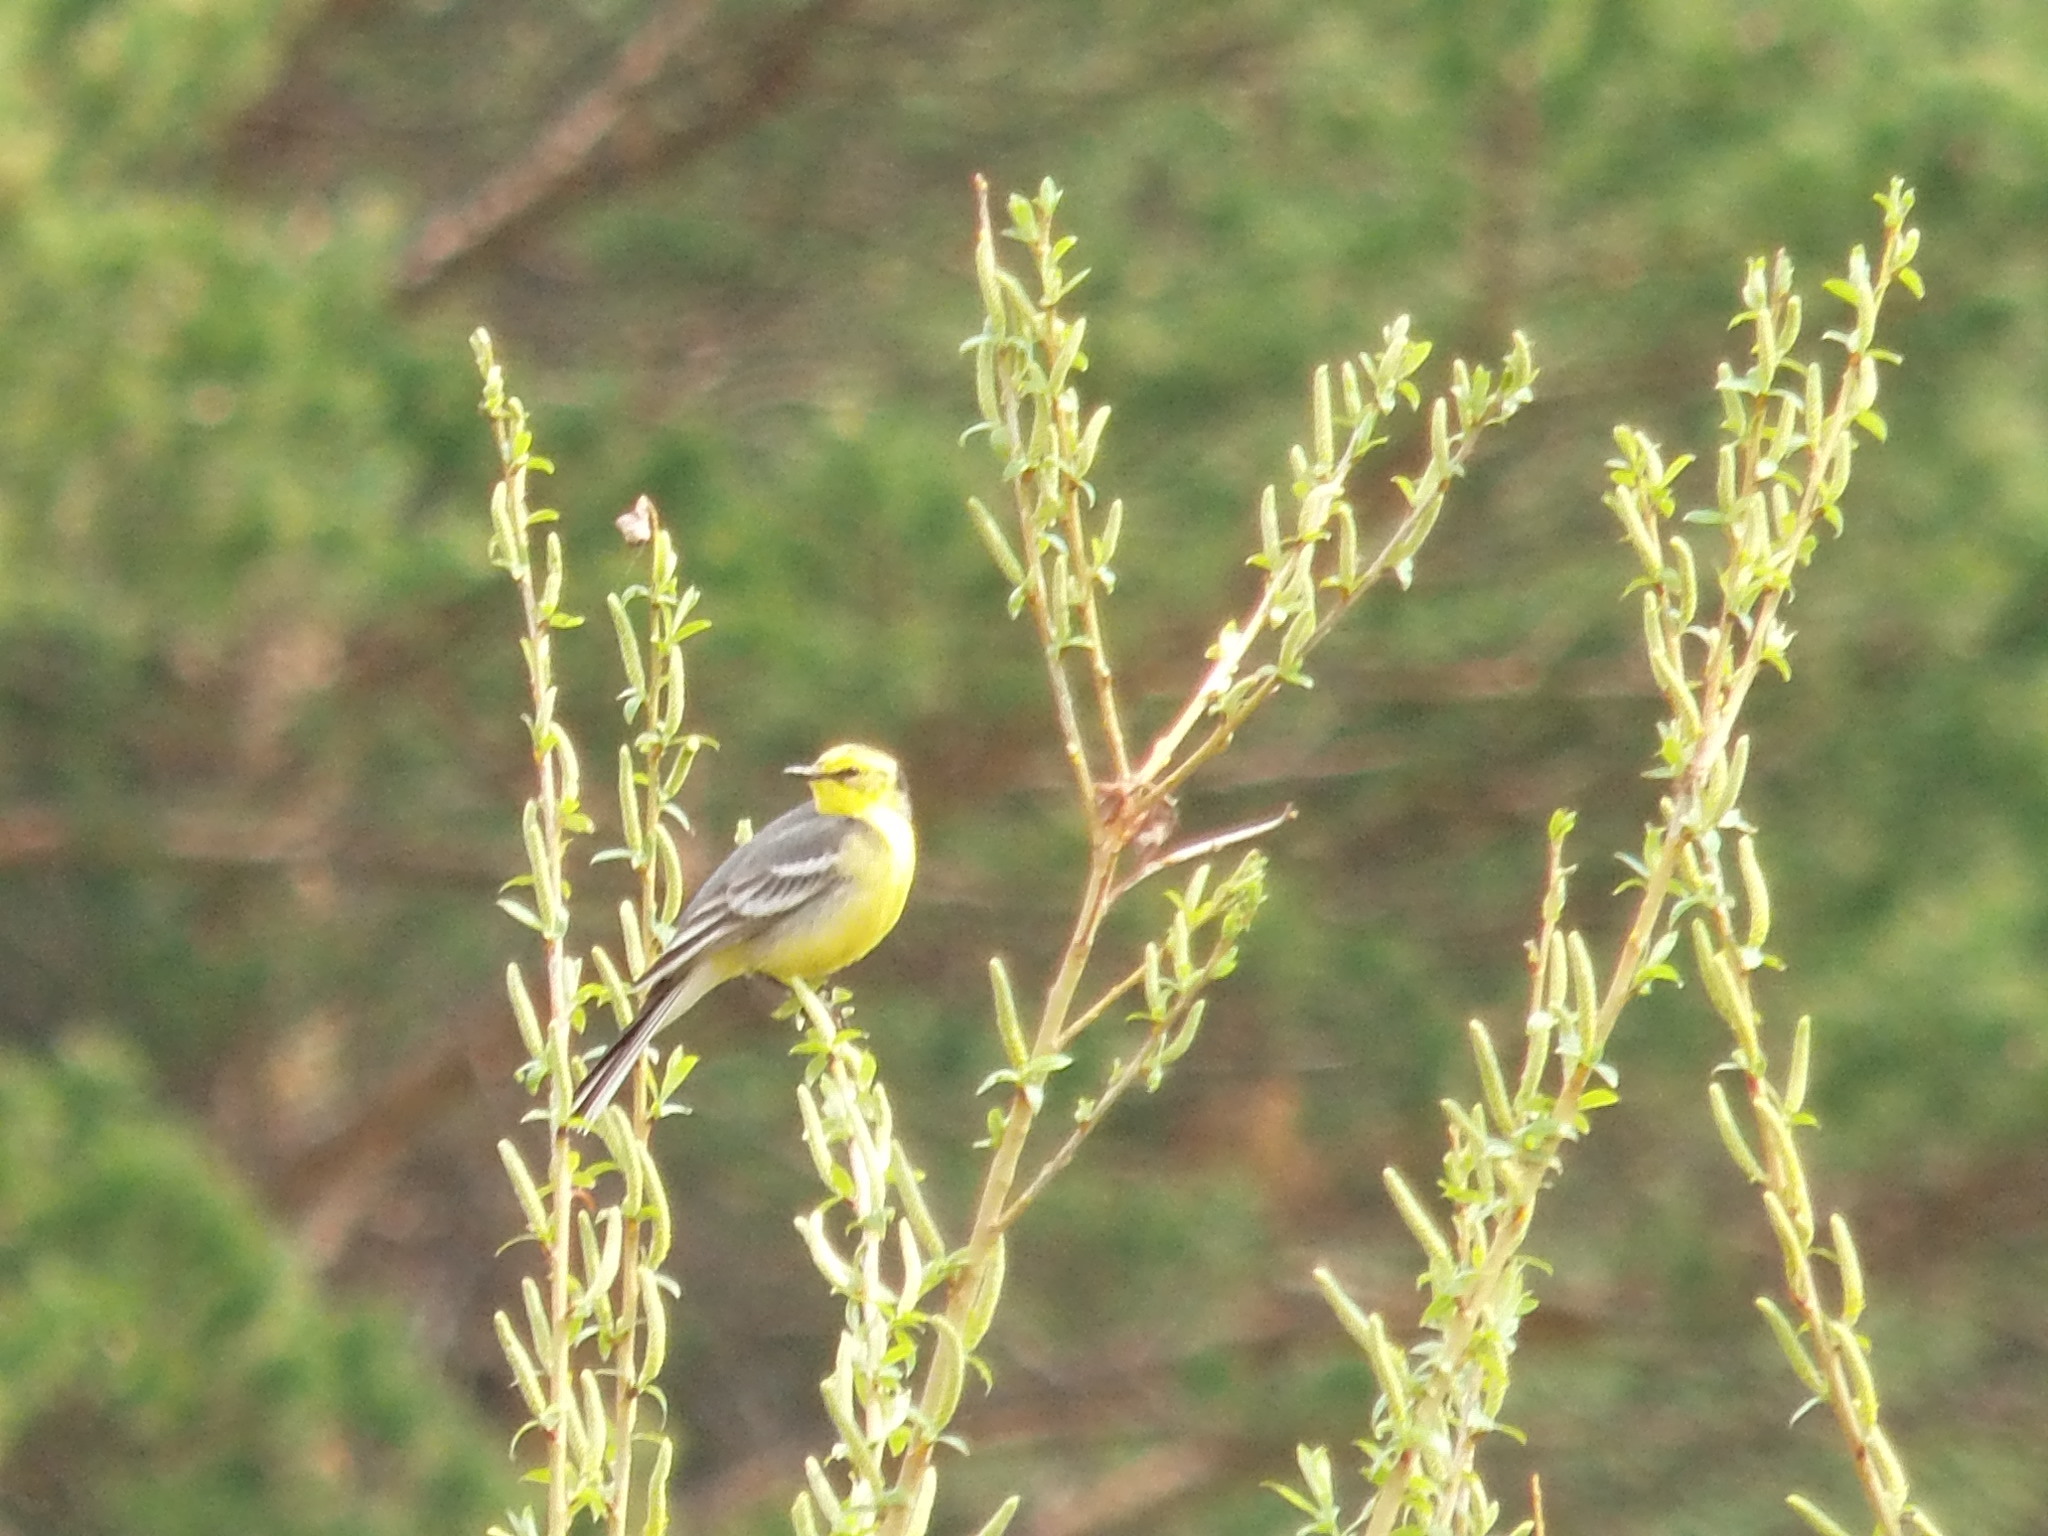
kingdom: Animalia
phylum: Chordata
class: Aves
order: Passeriformes
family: Motacillidae
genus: Motacilla
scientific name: Motacilla citreola
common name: Citrine wagtail
